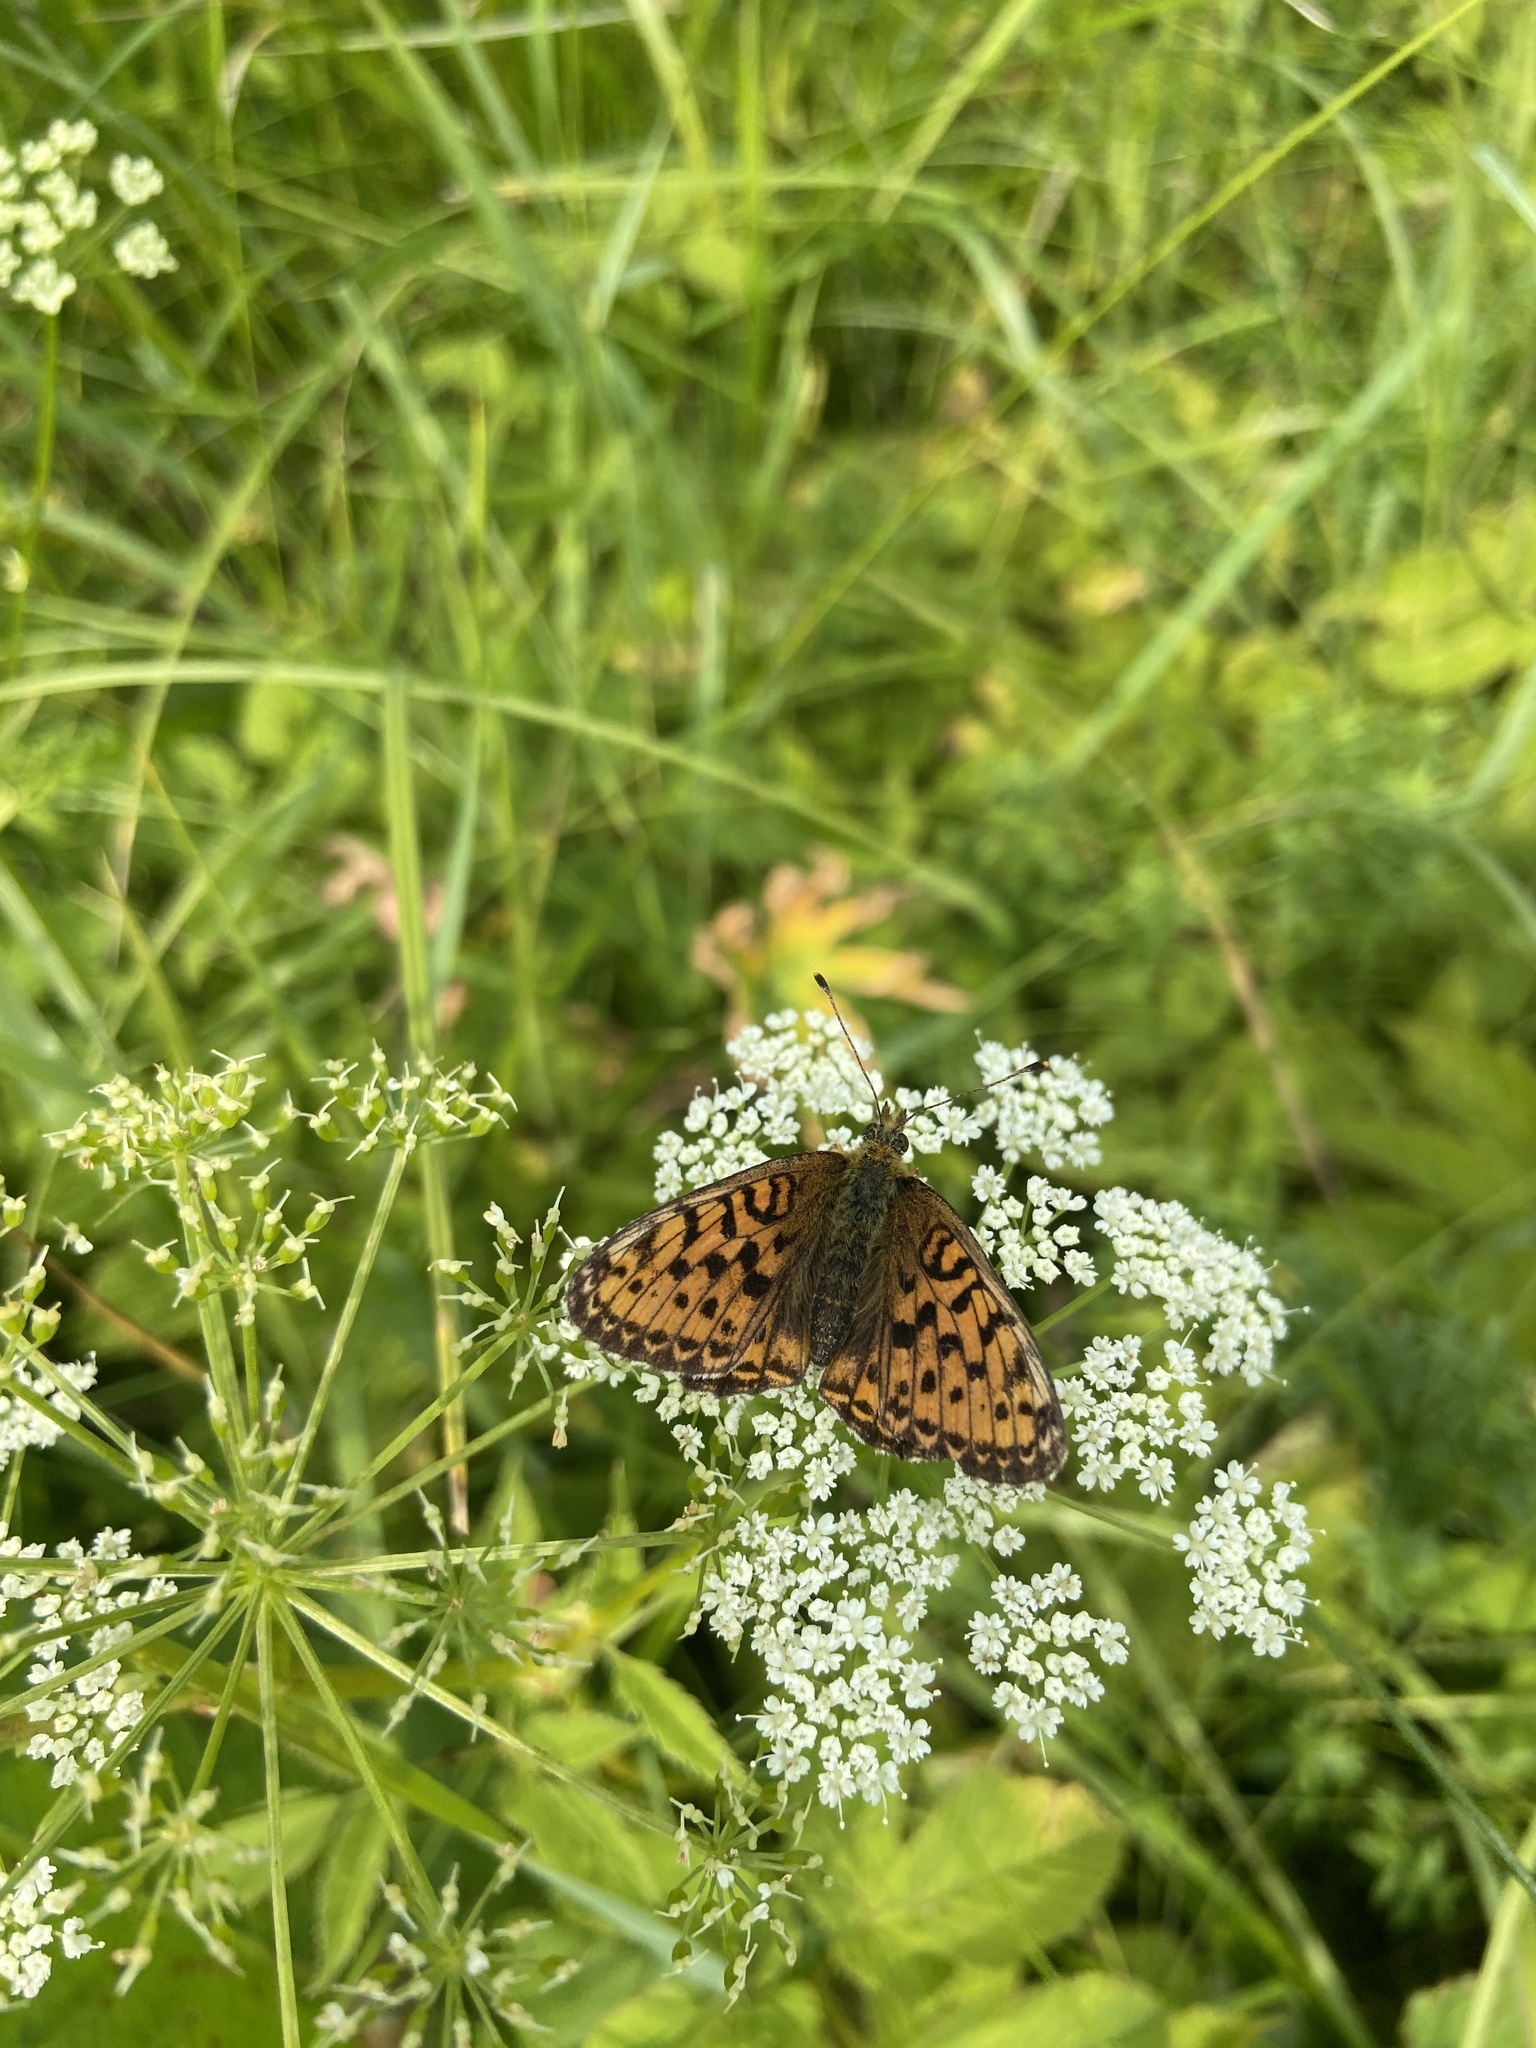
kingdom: Animalia
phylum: Arthropoda
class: Insecta
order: Lepidoptera
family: Nymphalidae
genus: Brenthis
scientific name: Brenthis ino
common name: Lesser marbled fritillary
